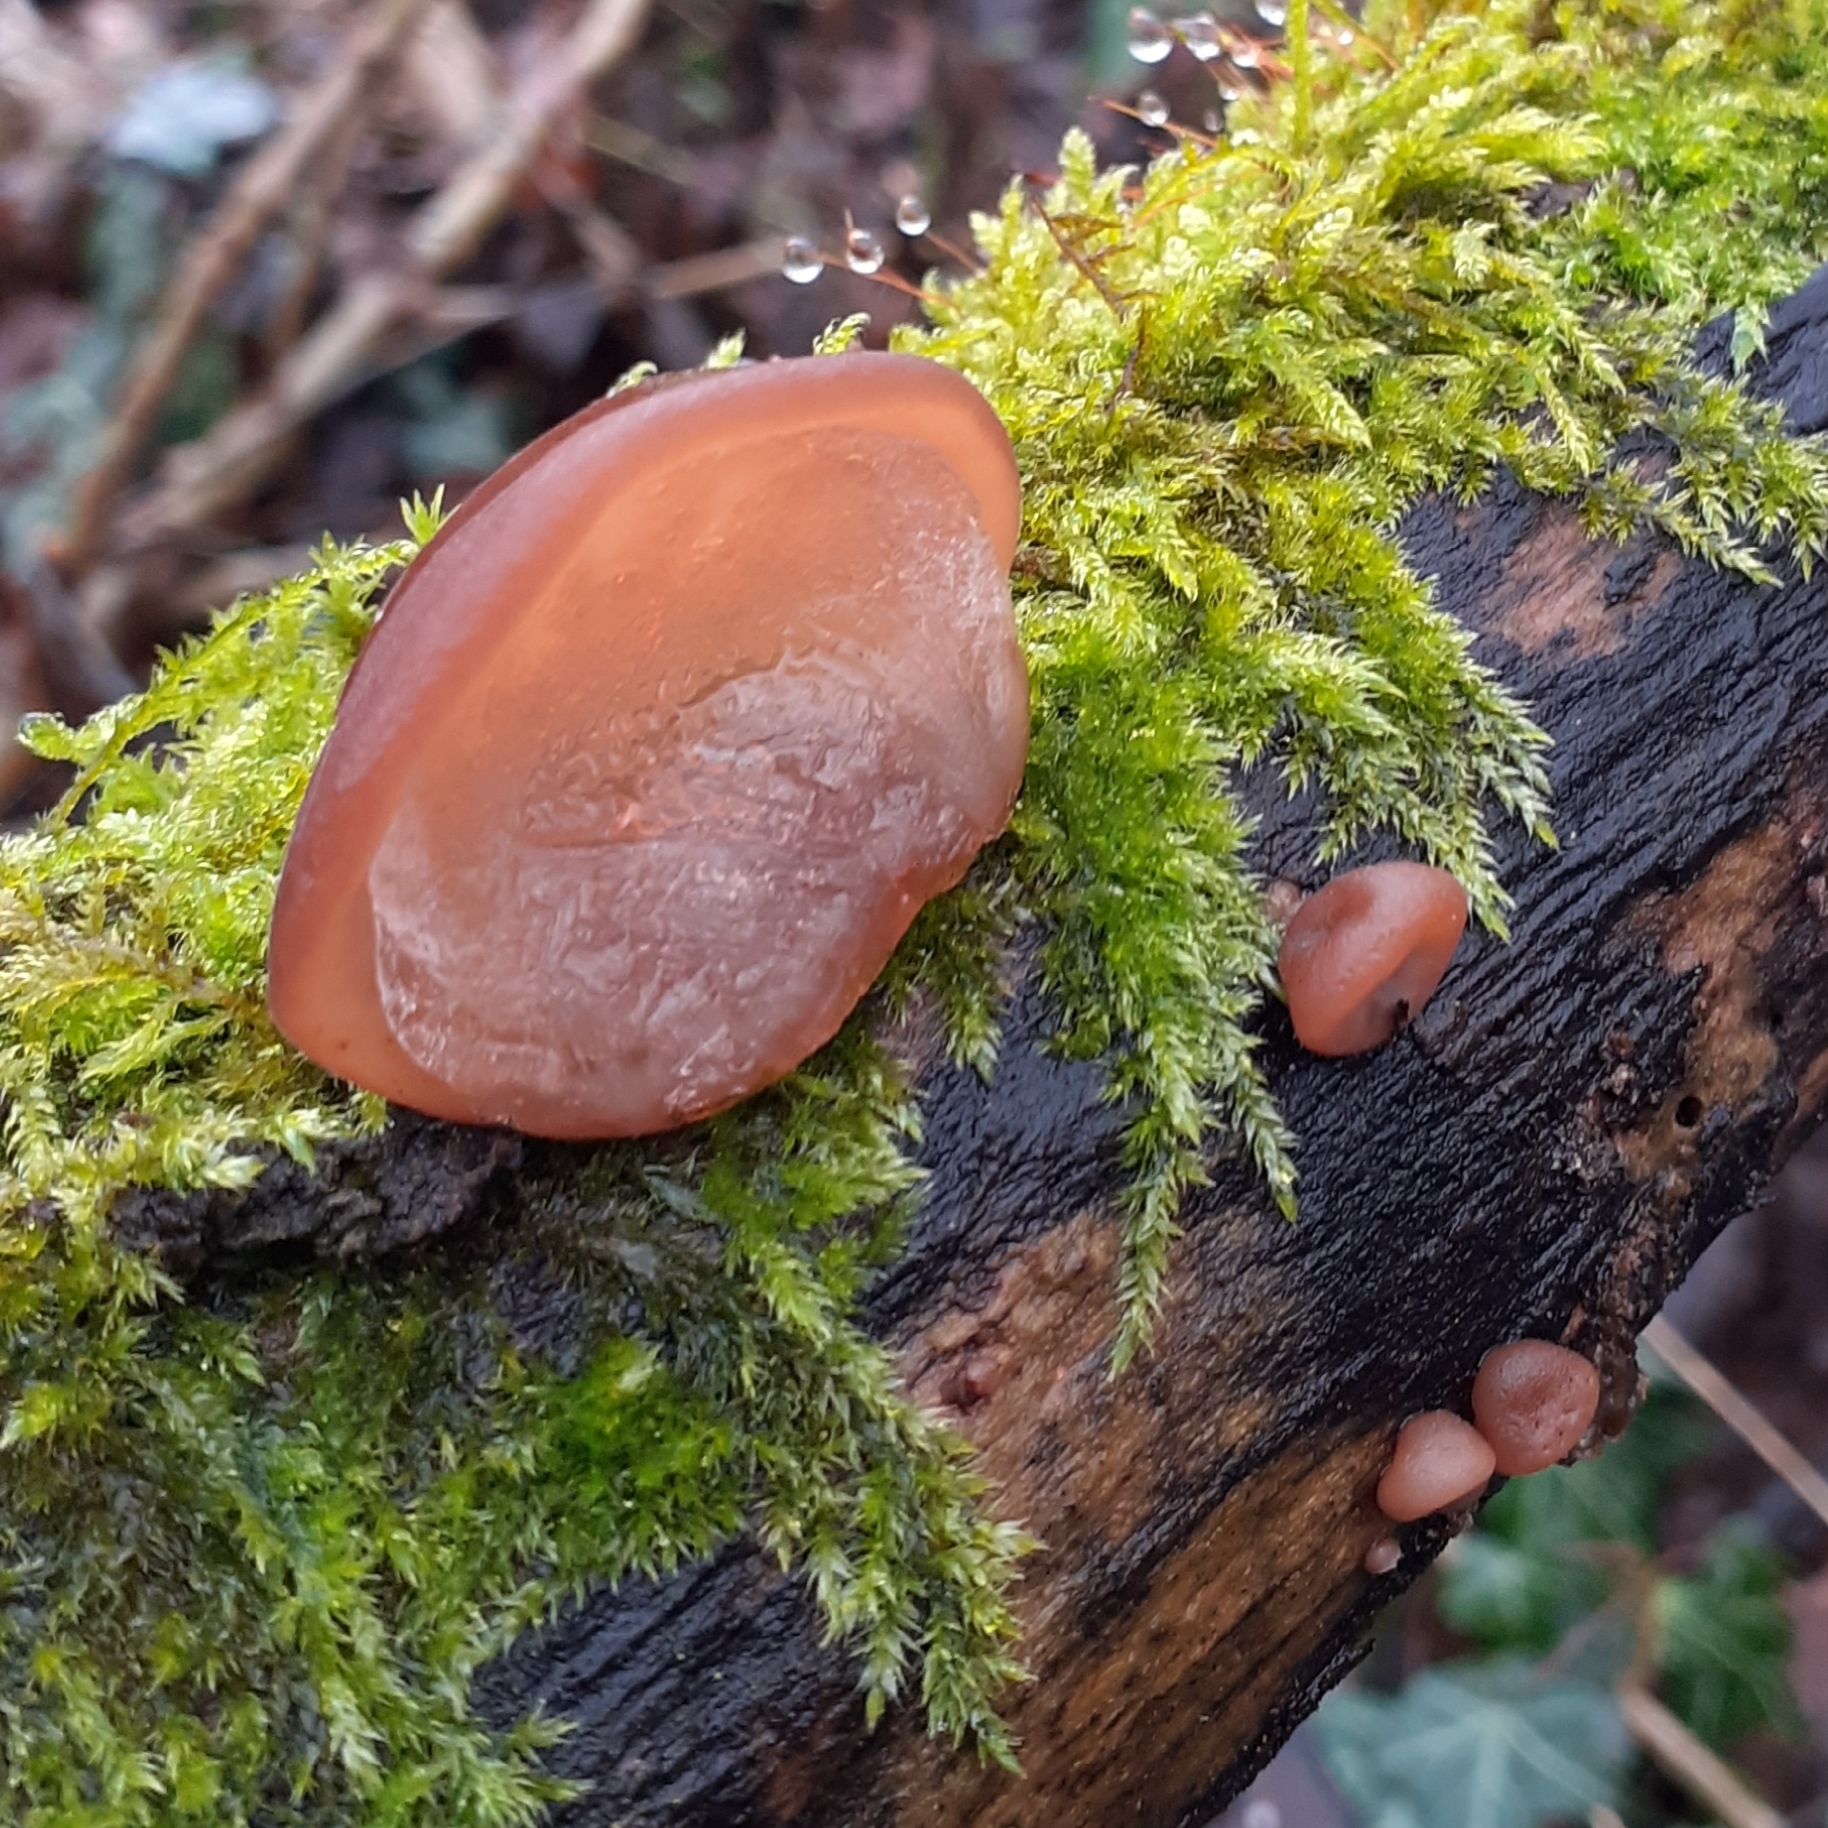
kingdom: Fungi
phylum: Basidiomycota
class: Agaricomycetes
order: Auriculariales
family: Auriculariaceae
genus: Auricularia
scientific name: Auricularia auricula-judae
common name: Jelly ear
